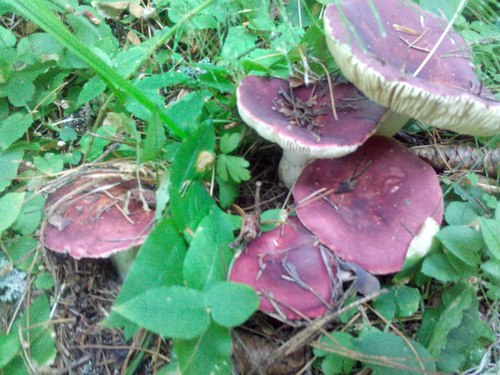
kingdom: Fungi
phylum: Basidiomycota
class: Agaricomycetes
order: Russulales
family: Russulaceae
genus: Russula
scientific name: Russula
